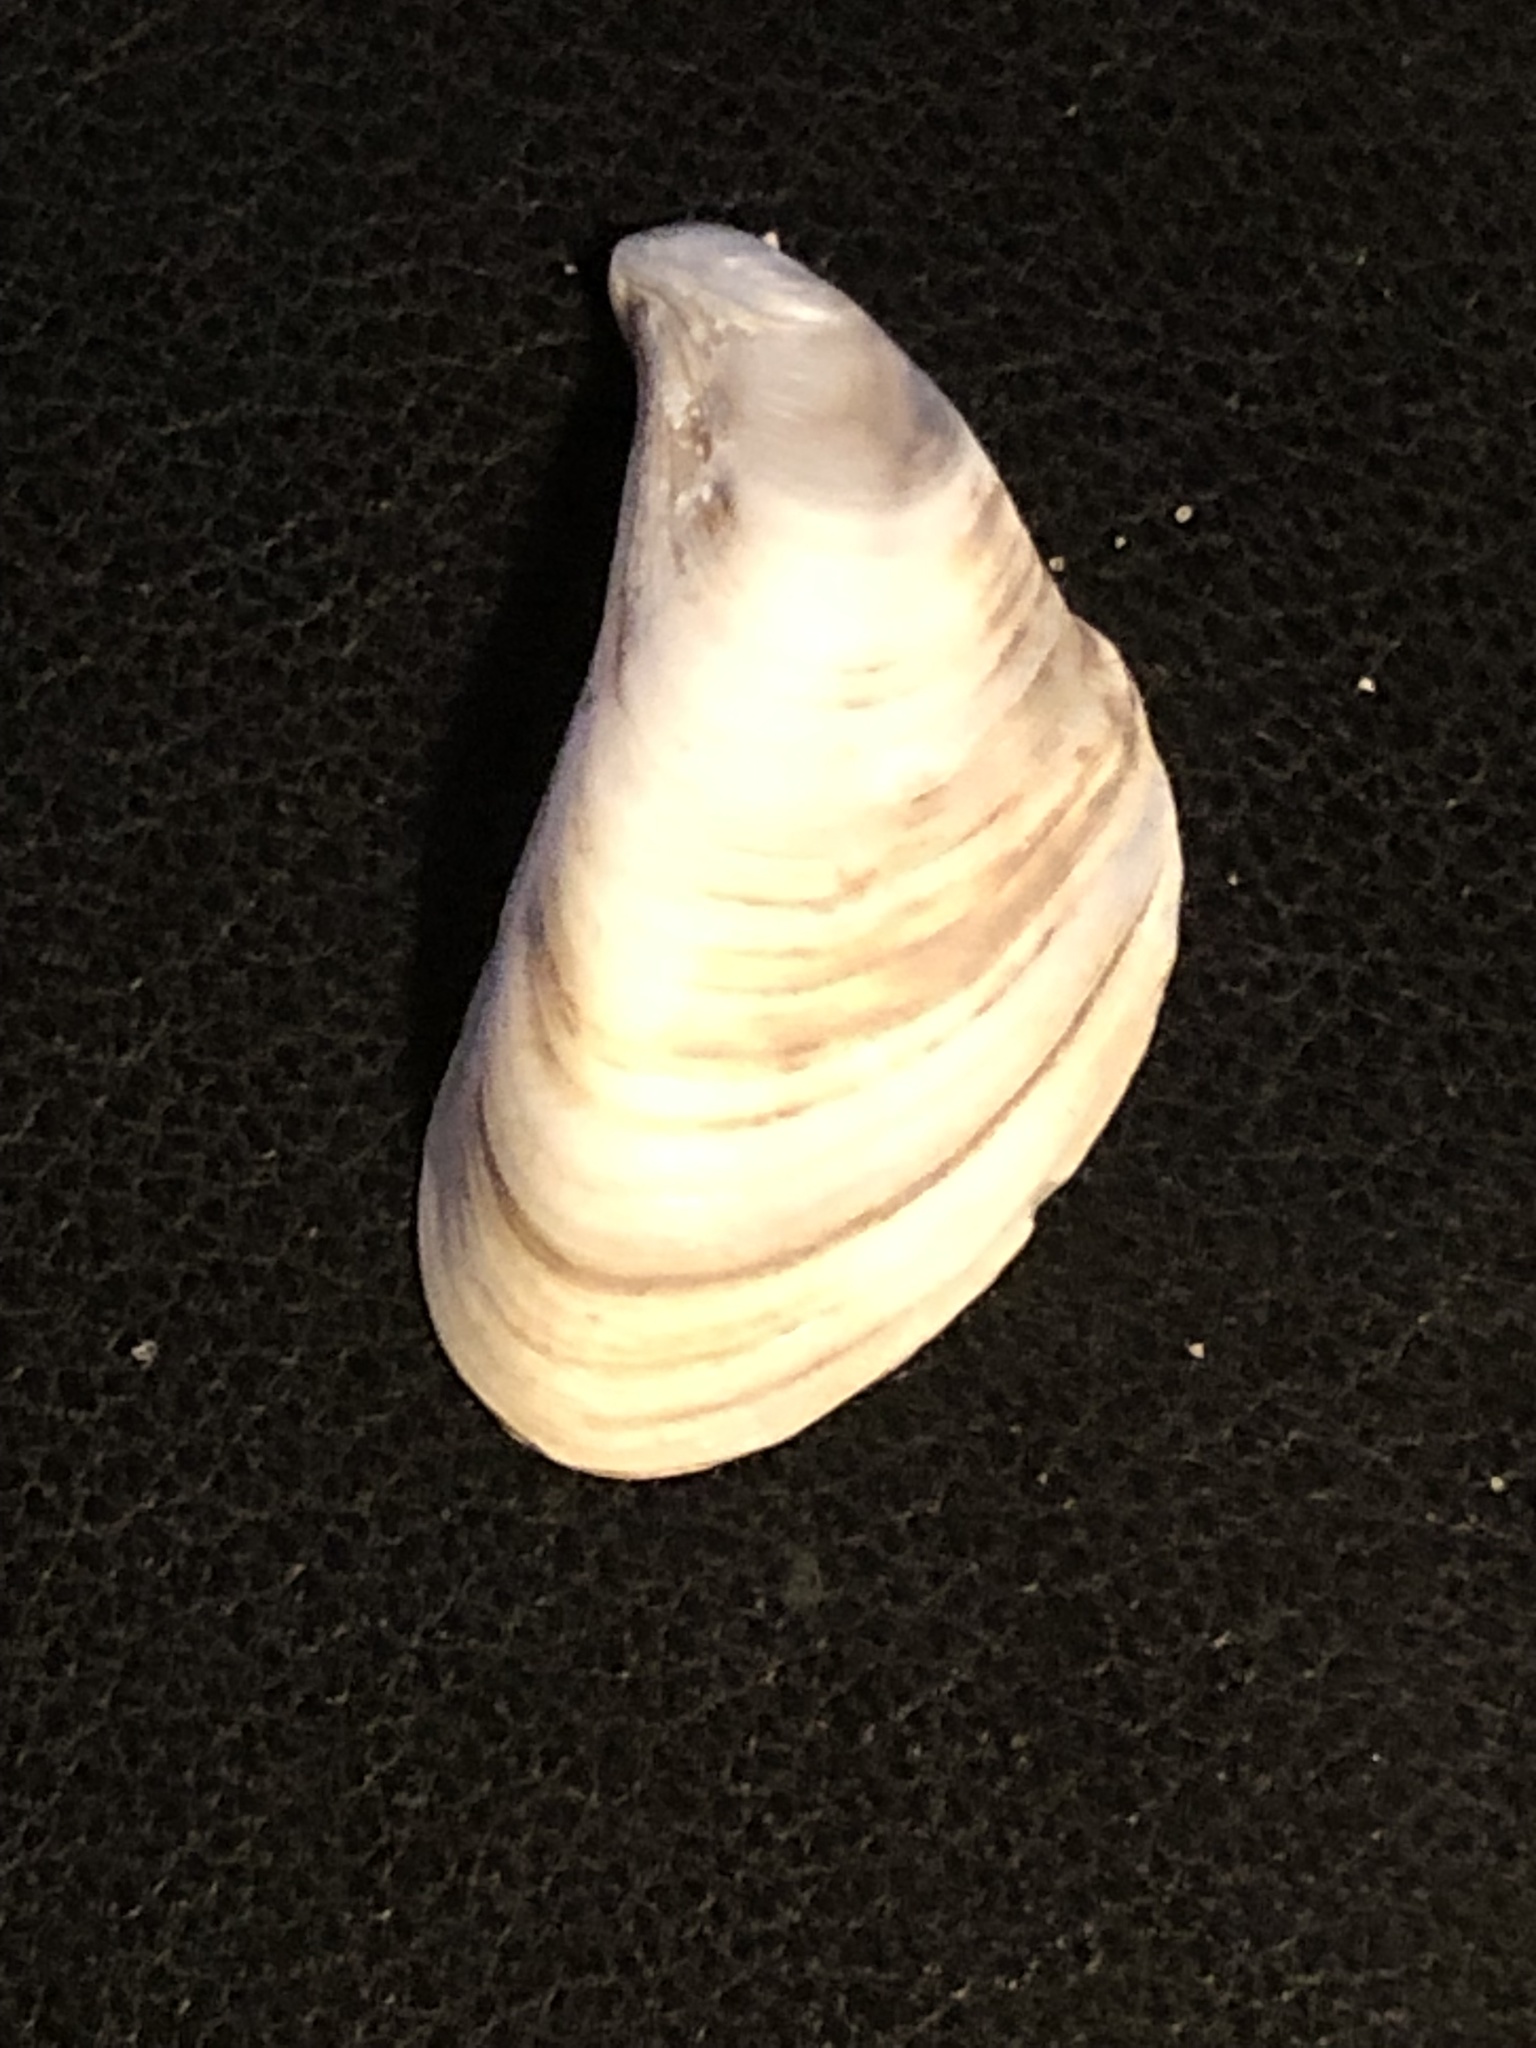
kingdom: Animalia
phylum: Mollusca
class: Bivalvia
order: Myida
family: Dreissenidae
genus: Dreissena
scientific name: Dreissena bugensis
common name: Quagga mussel
